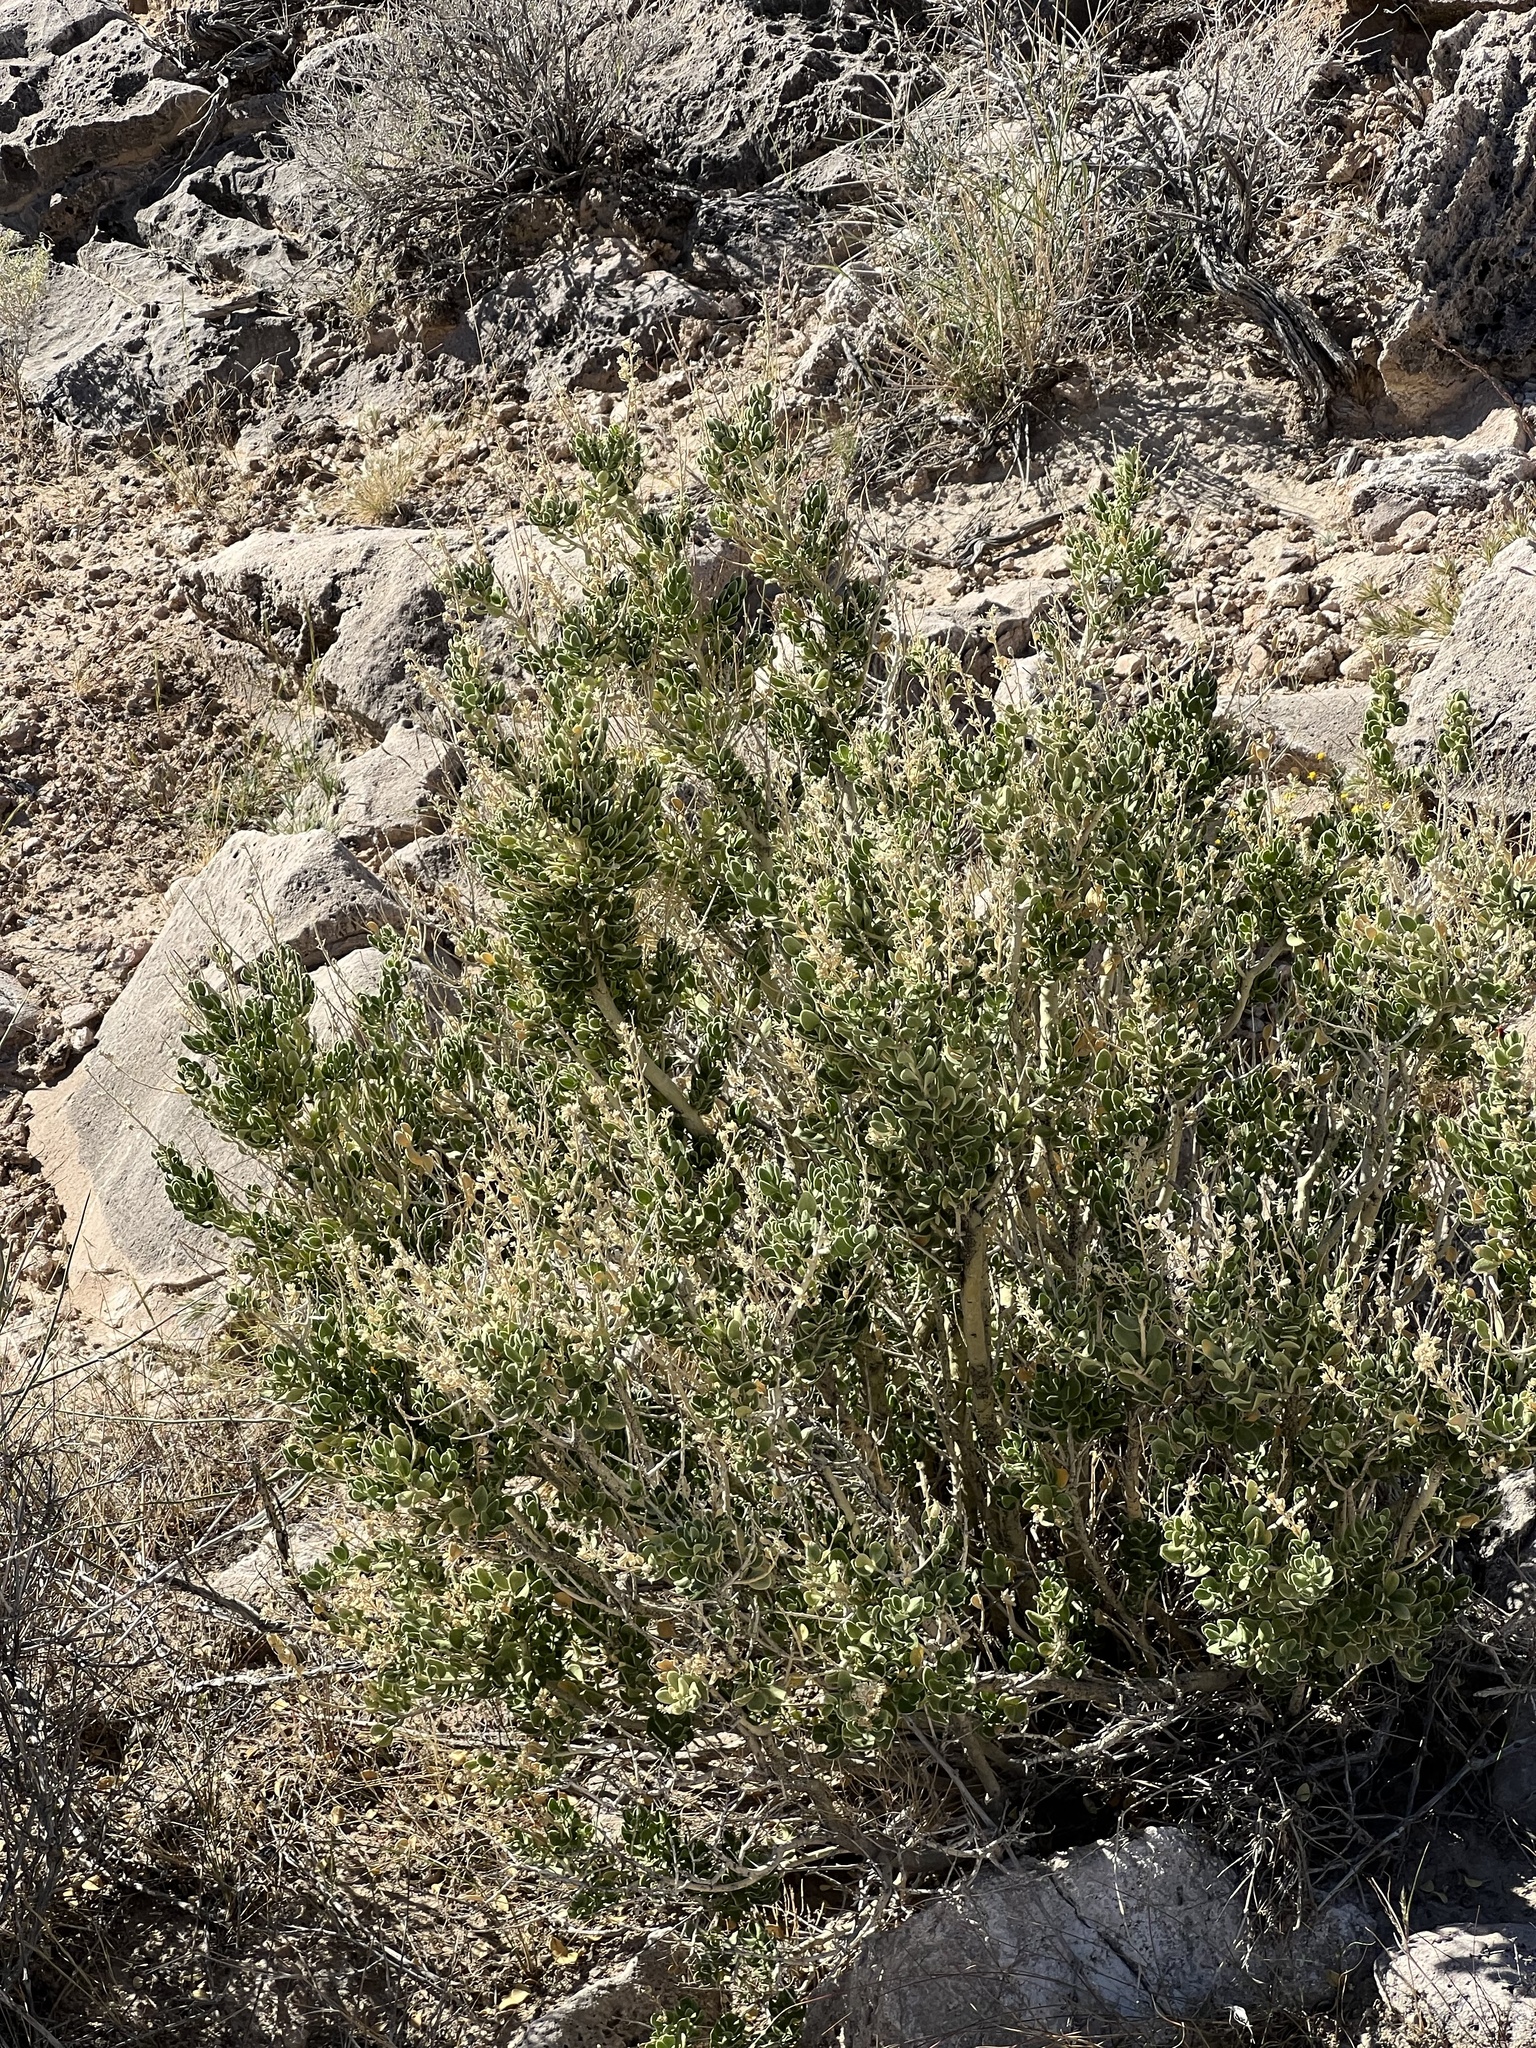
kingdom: Plantae
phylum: Tracheophyta
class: Magnoliopsida
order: Celastrales
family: Celastraceae
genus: Mortonia
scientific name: Mortonia utahensis
